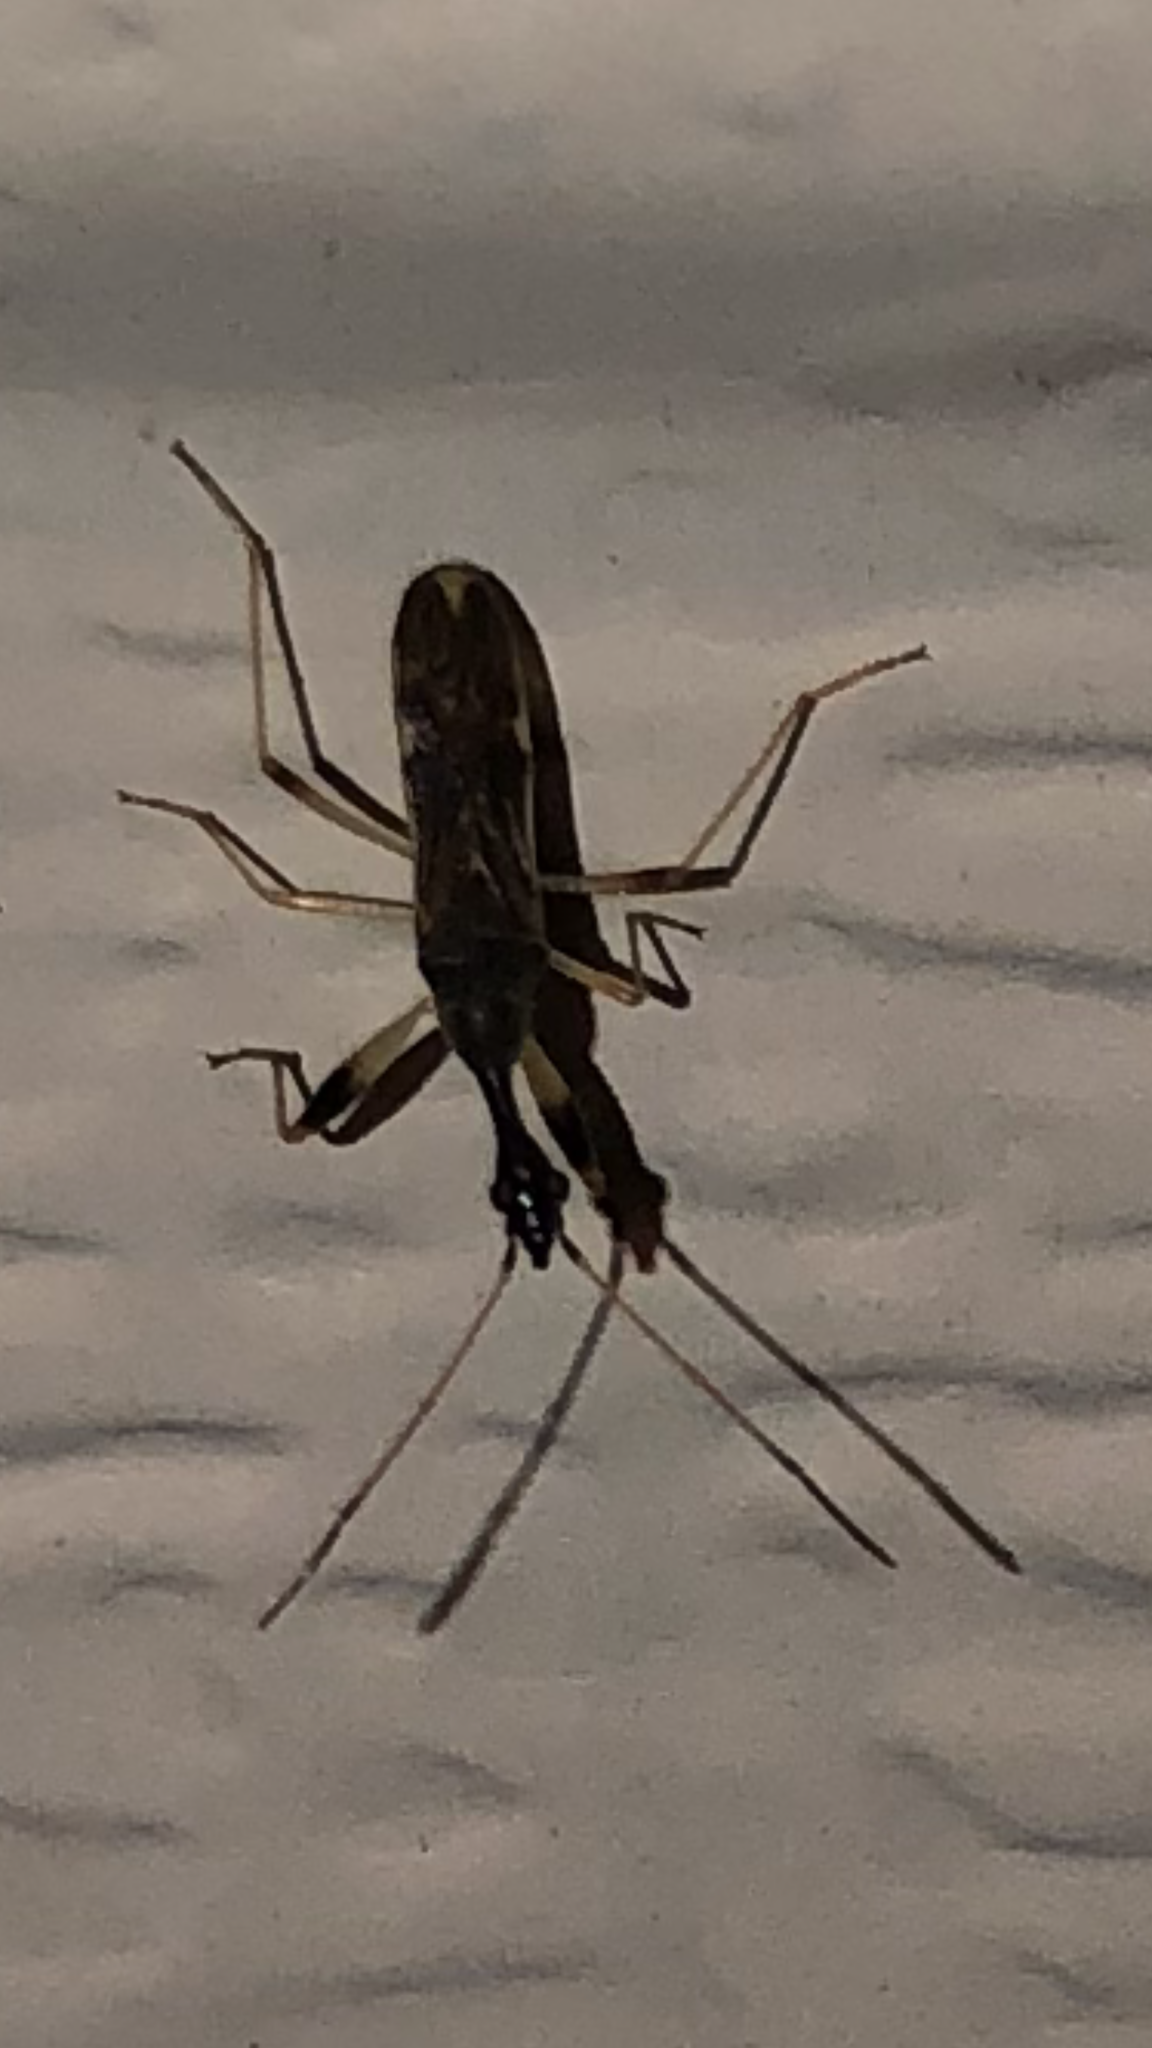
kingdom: Animalia
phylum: Arthropoda
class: Insecta
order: Hemiptera
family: Rhyparochromidae
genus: Myodocha
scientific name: Myodocha serripes
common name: Long-necked seed bug
